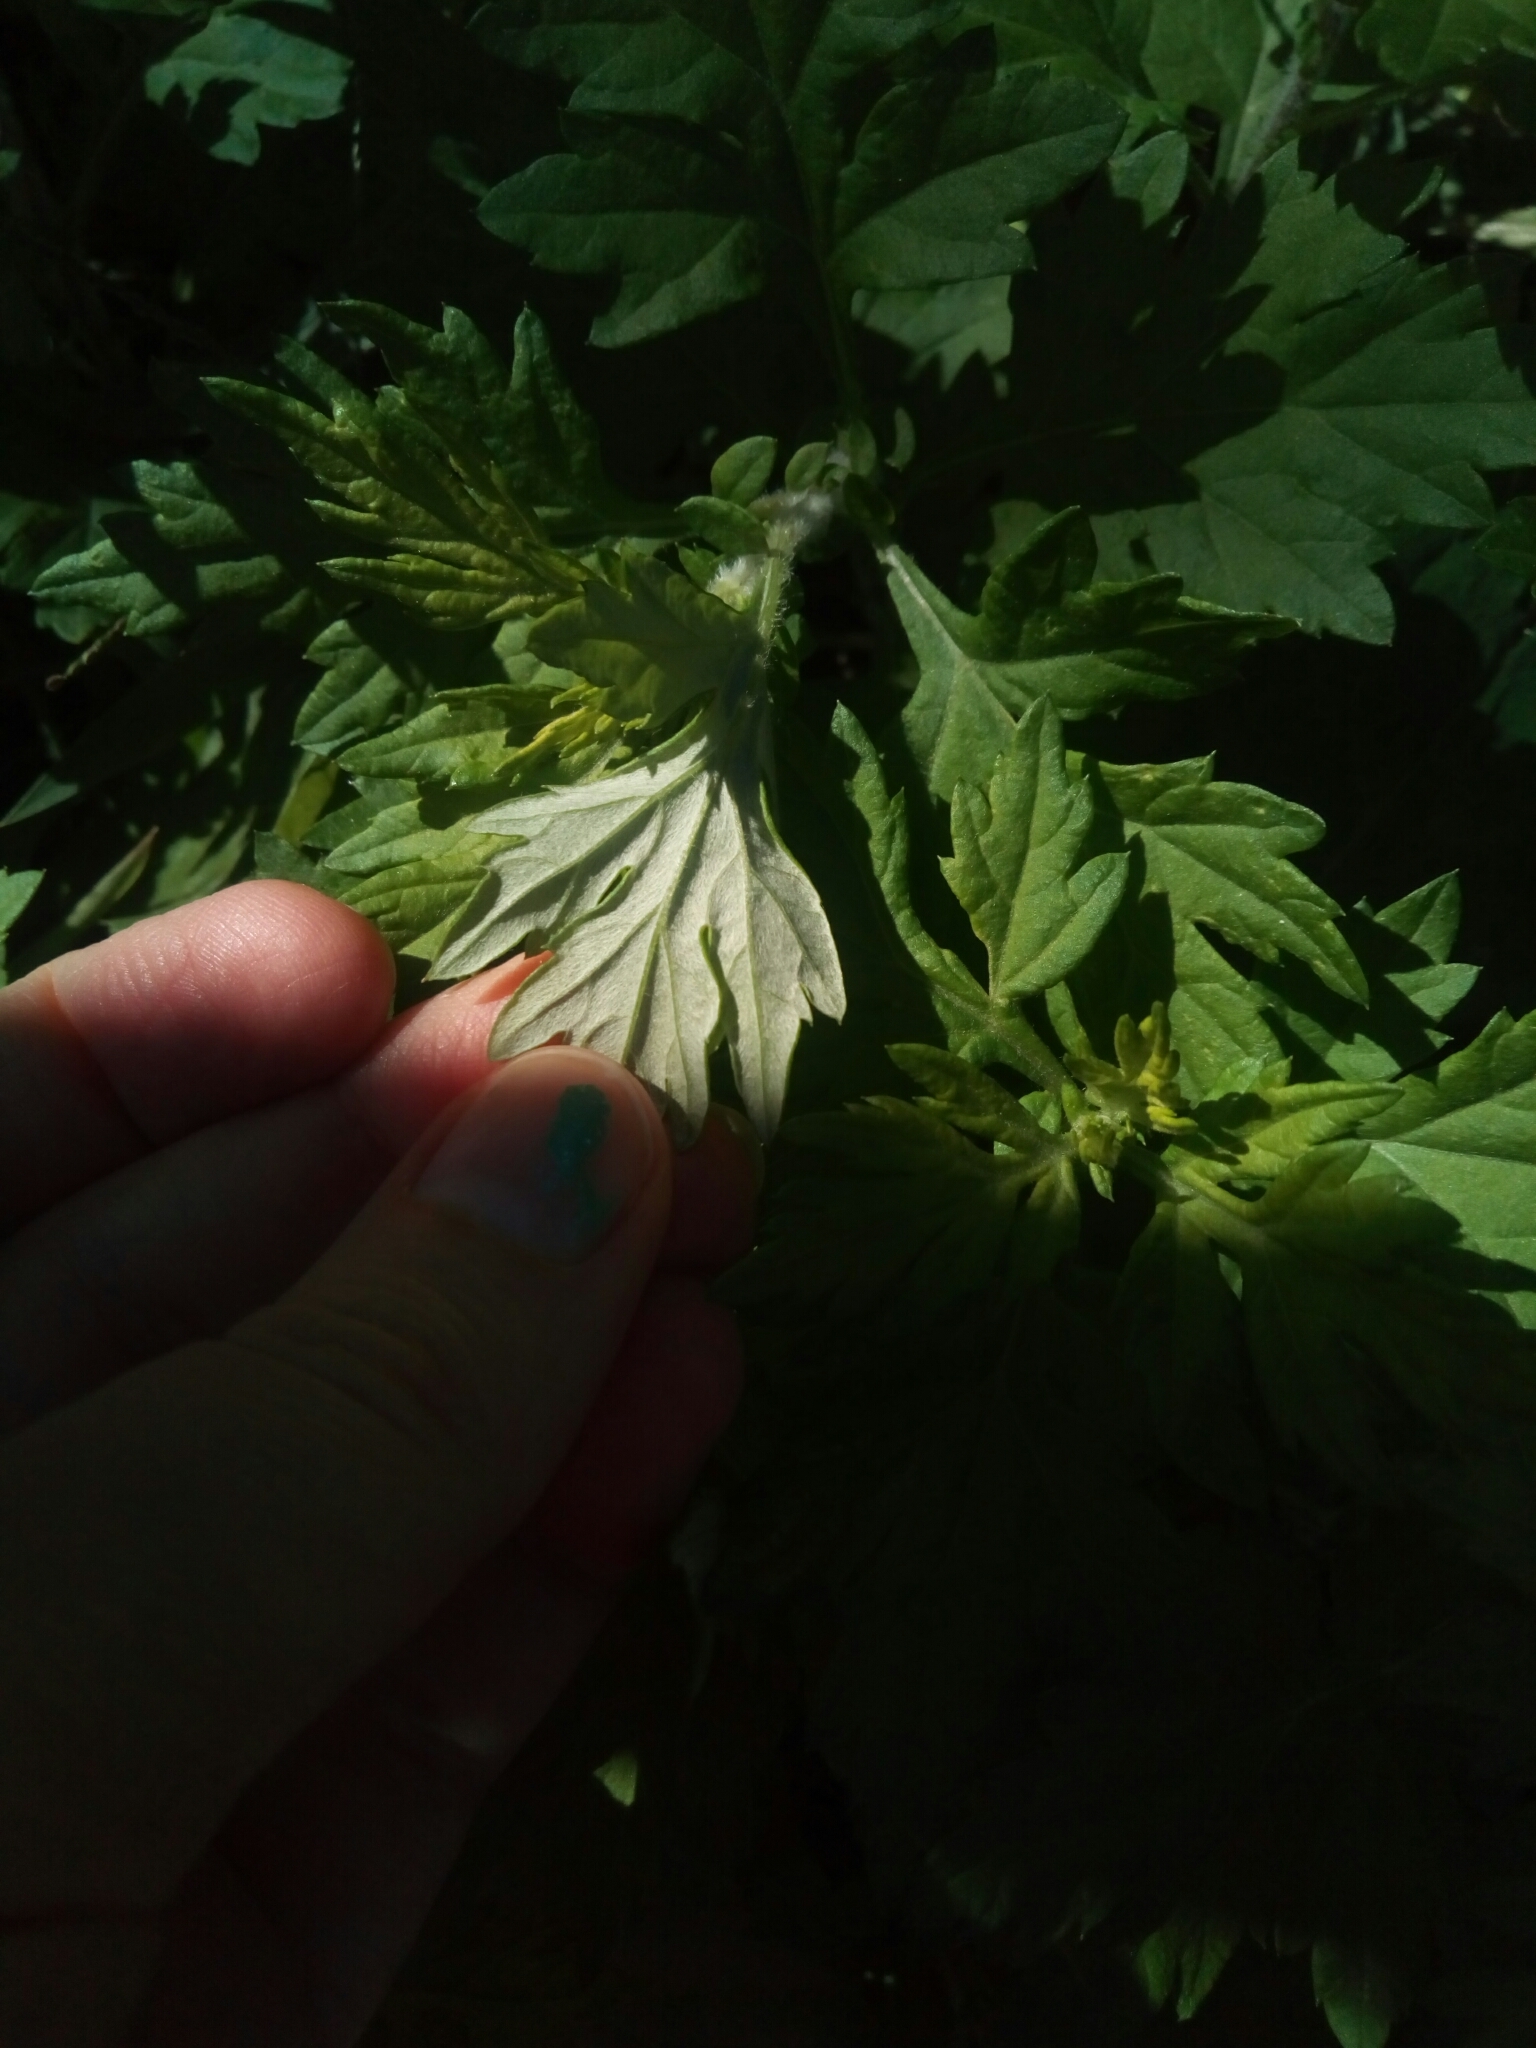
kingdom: Plantae
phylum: Tracheophyta
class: Magnoliopsida
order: Asterales
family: Asteraceae
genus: Artemisia
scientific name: Artemisia vulgaris
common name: Mugwort
